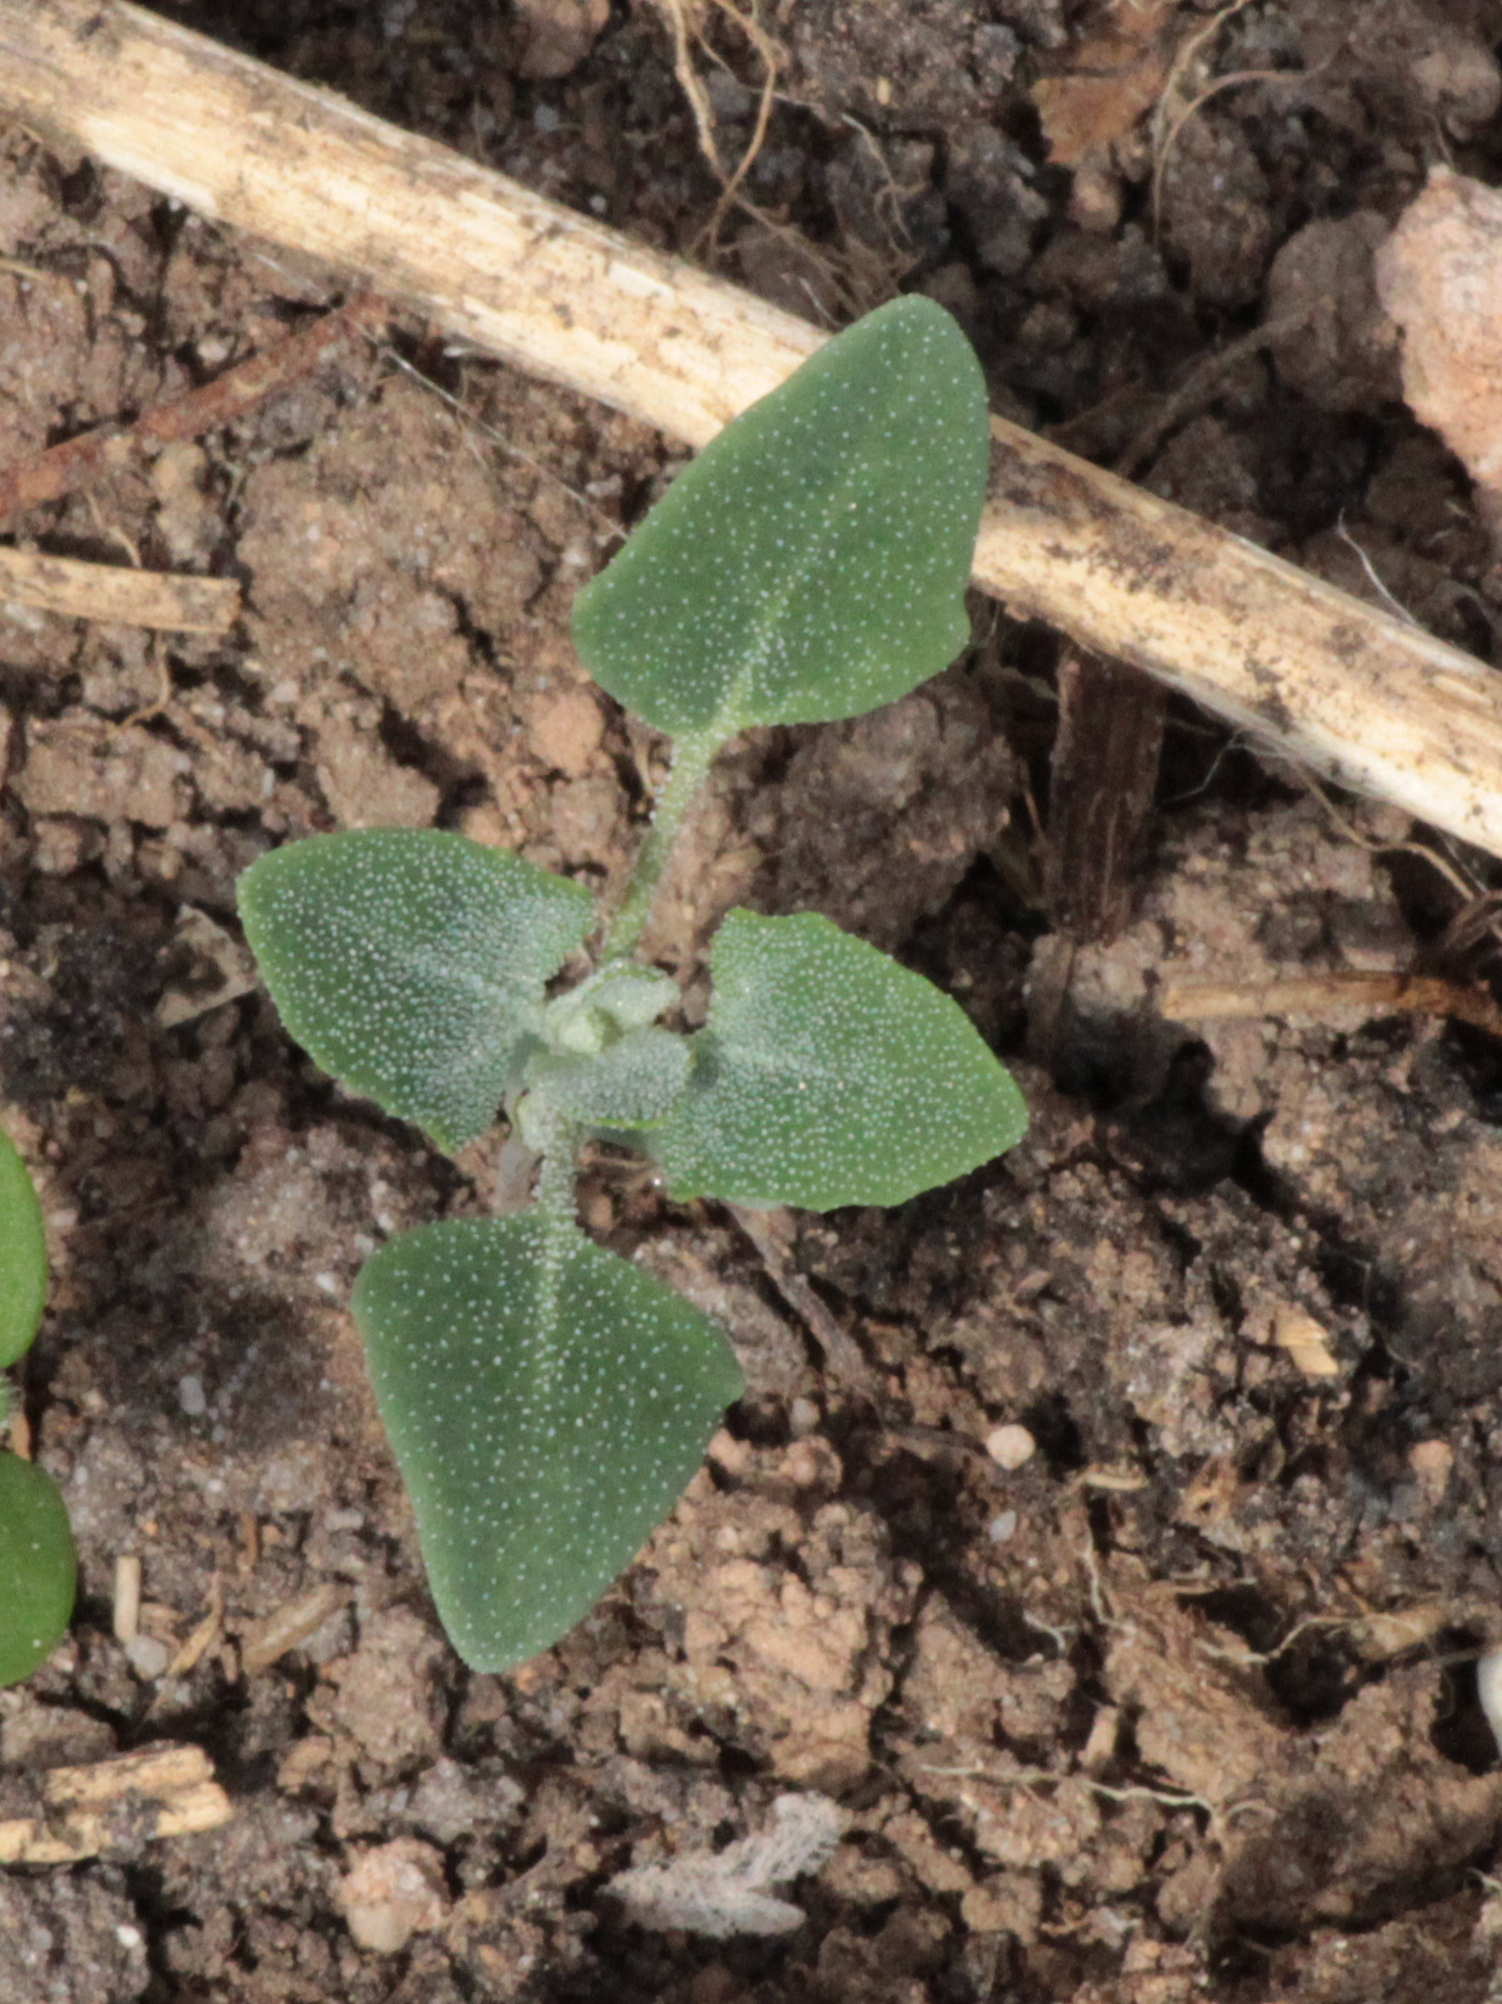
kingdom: Plantae
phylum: Tracheophyta
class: Magnoliopsida
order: Caryophyllales
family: Amaranthaceae
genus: Chenopodium
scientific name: Chenopodium album
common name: Fat-hen
